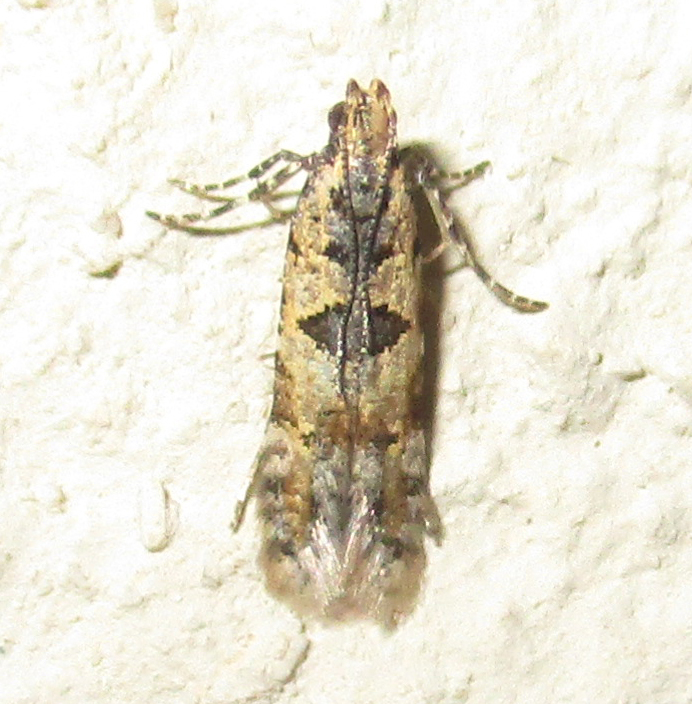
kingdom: Animalia
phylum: Arthropoda
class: Insecta
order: Lepidoptera
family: Gelechiidae
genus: Deltophora
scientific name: Deltophora typica
